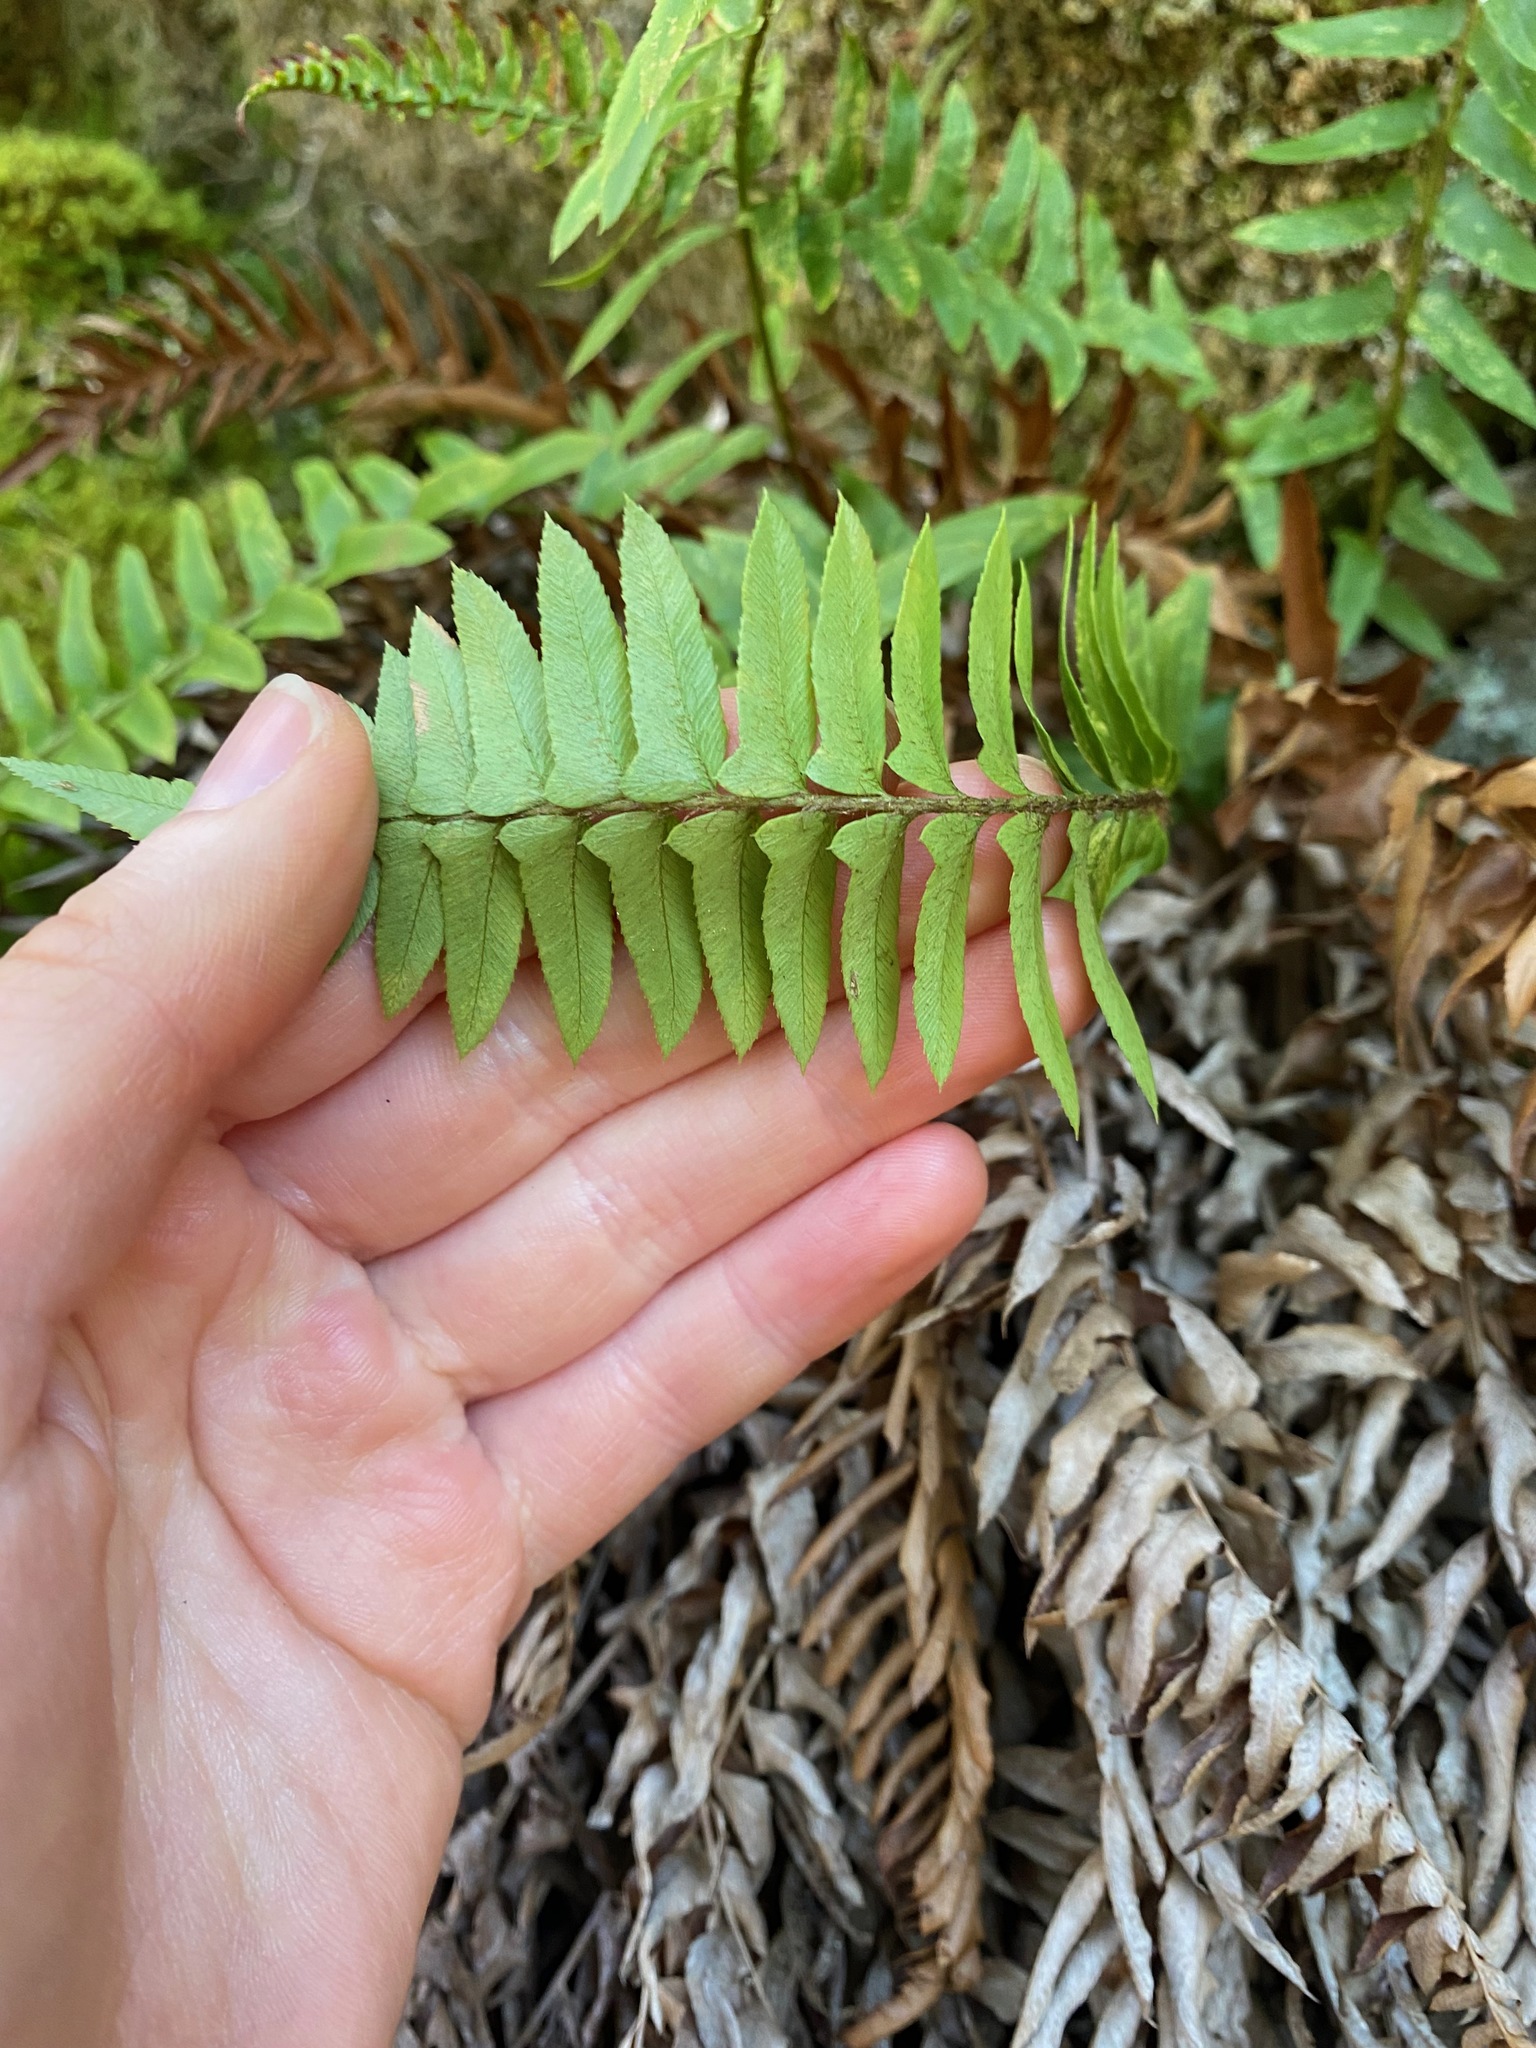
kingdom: Plantae
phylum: Tracheophyta
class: Polypodiopsida
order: Polypodiales
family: Dryopteridaceae
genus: Polystichum
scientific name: Polystichum imbricans
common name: Dwarf western sword fern
